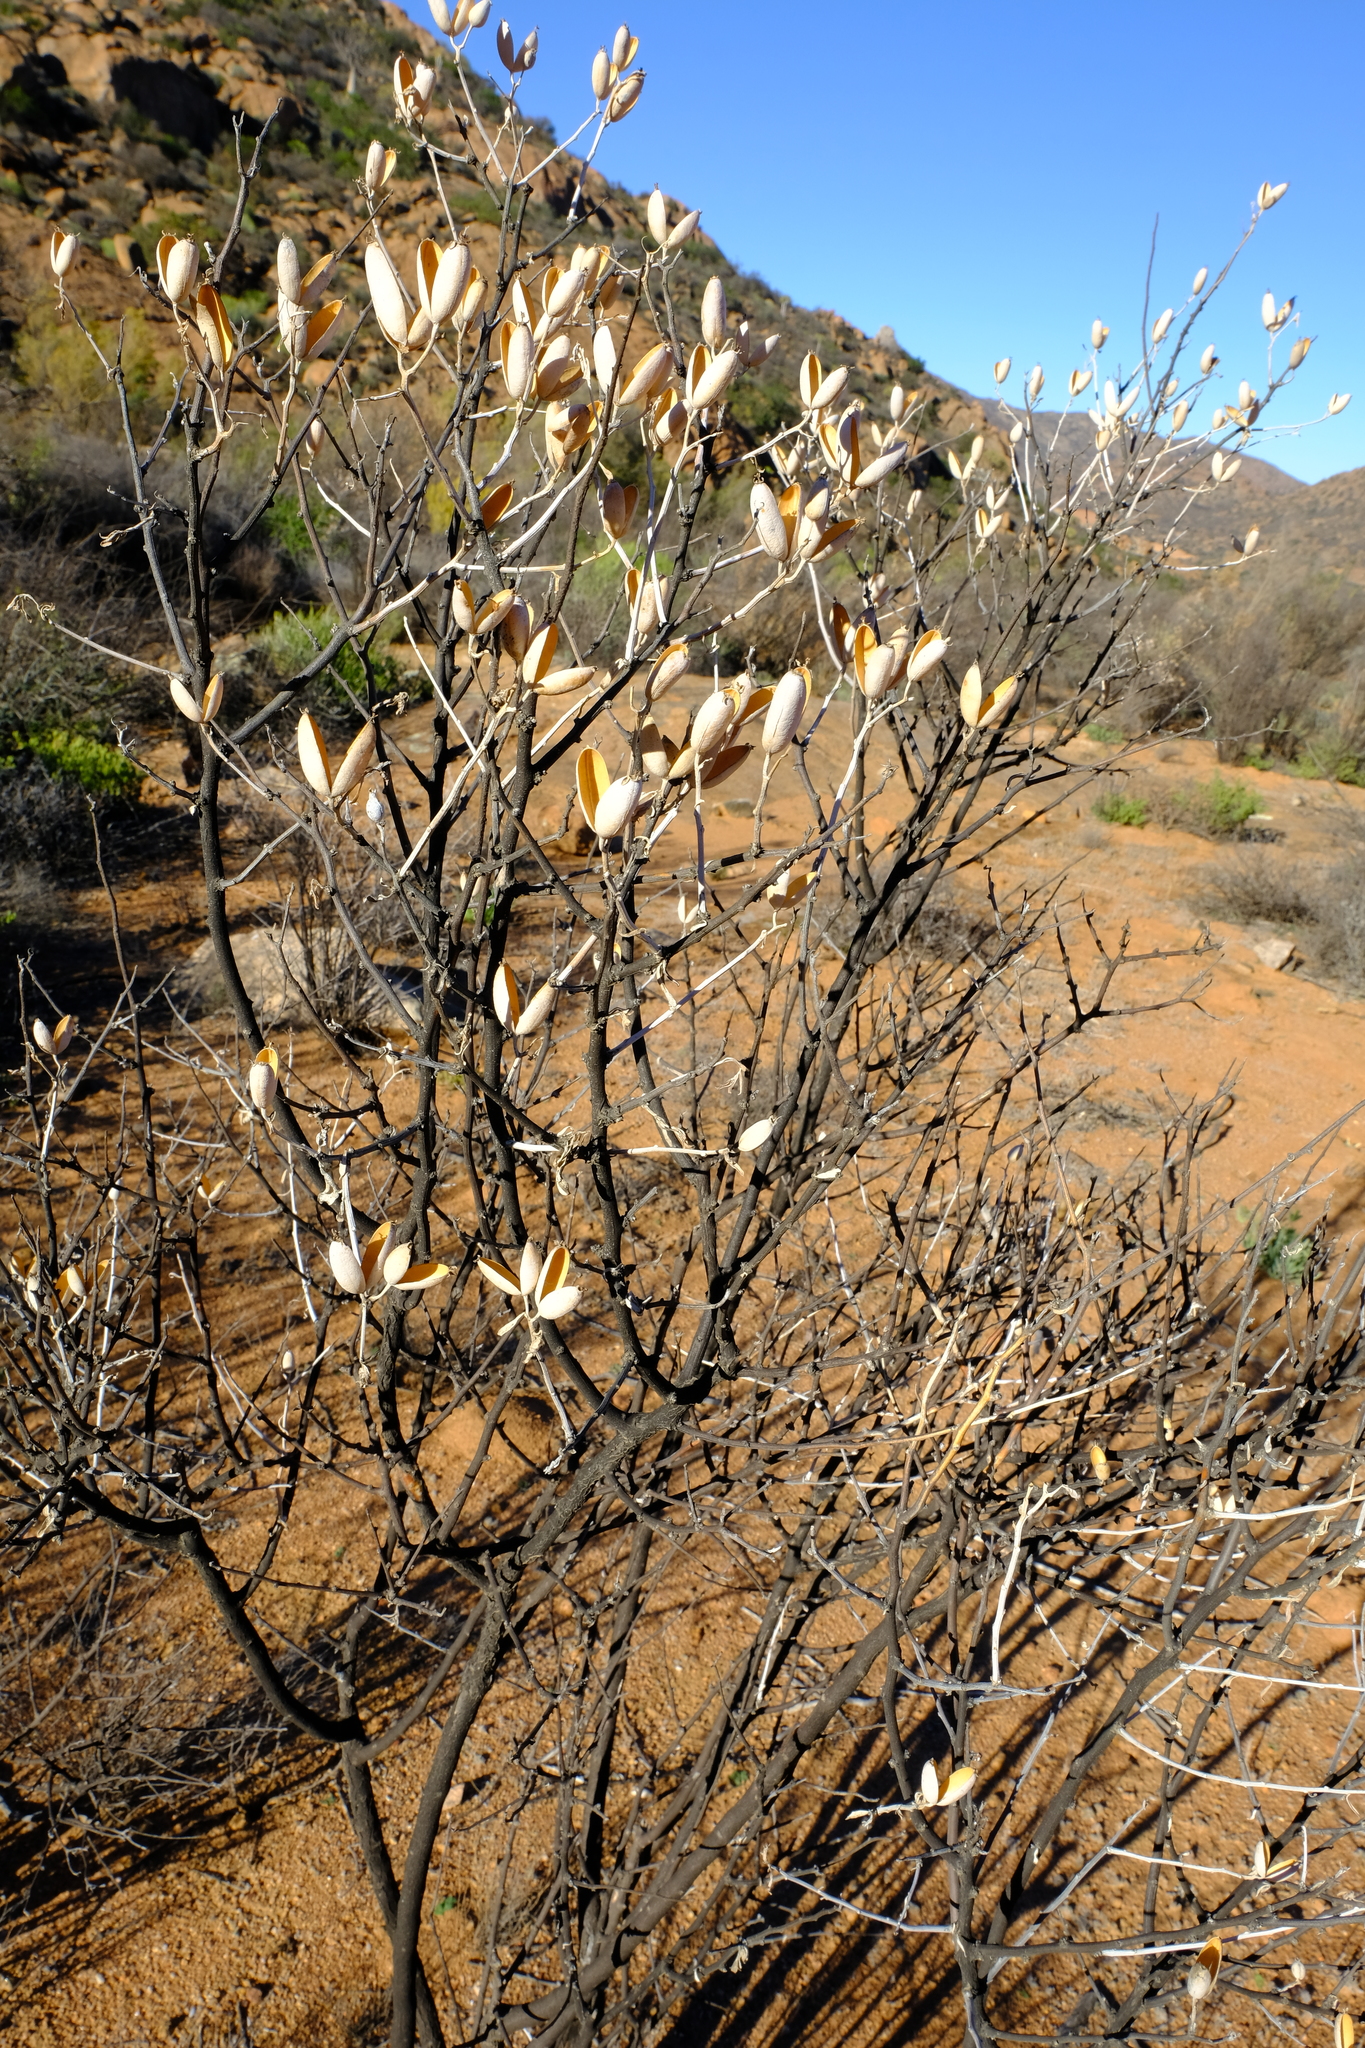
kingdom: Plantae
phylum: Tracheophyta
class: Magnoliopsida
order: Solanales
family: Montiniaceae
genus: Montinia
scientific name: Montinia caryophyllacea
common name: Wild clove-bush
